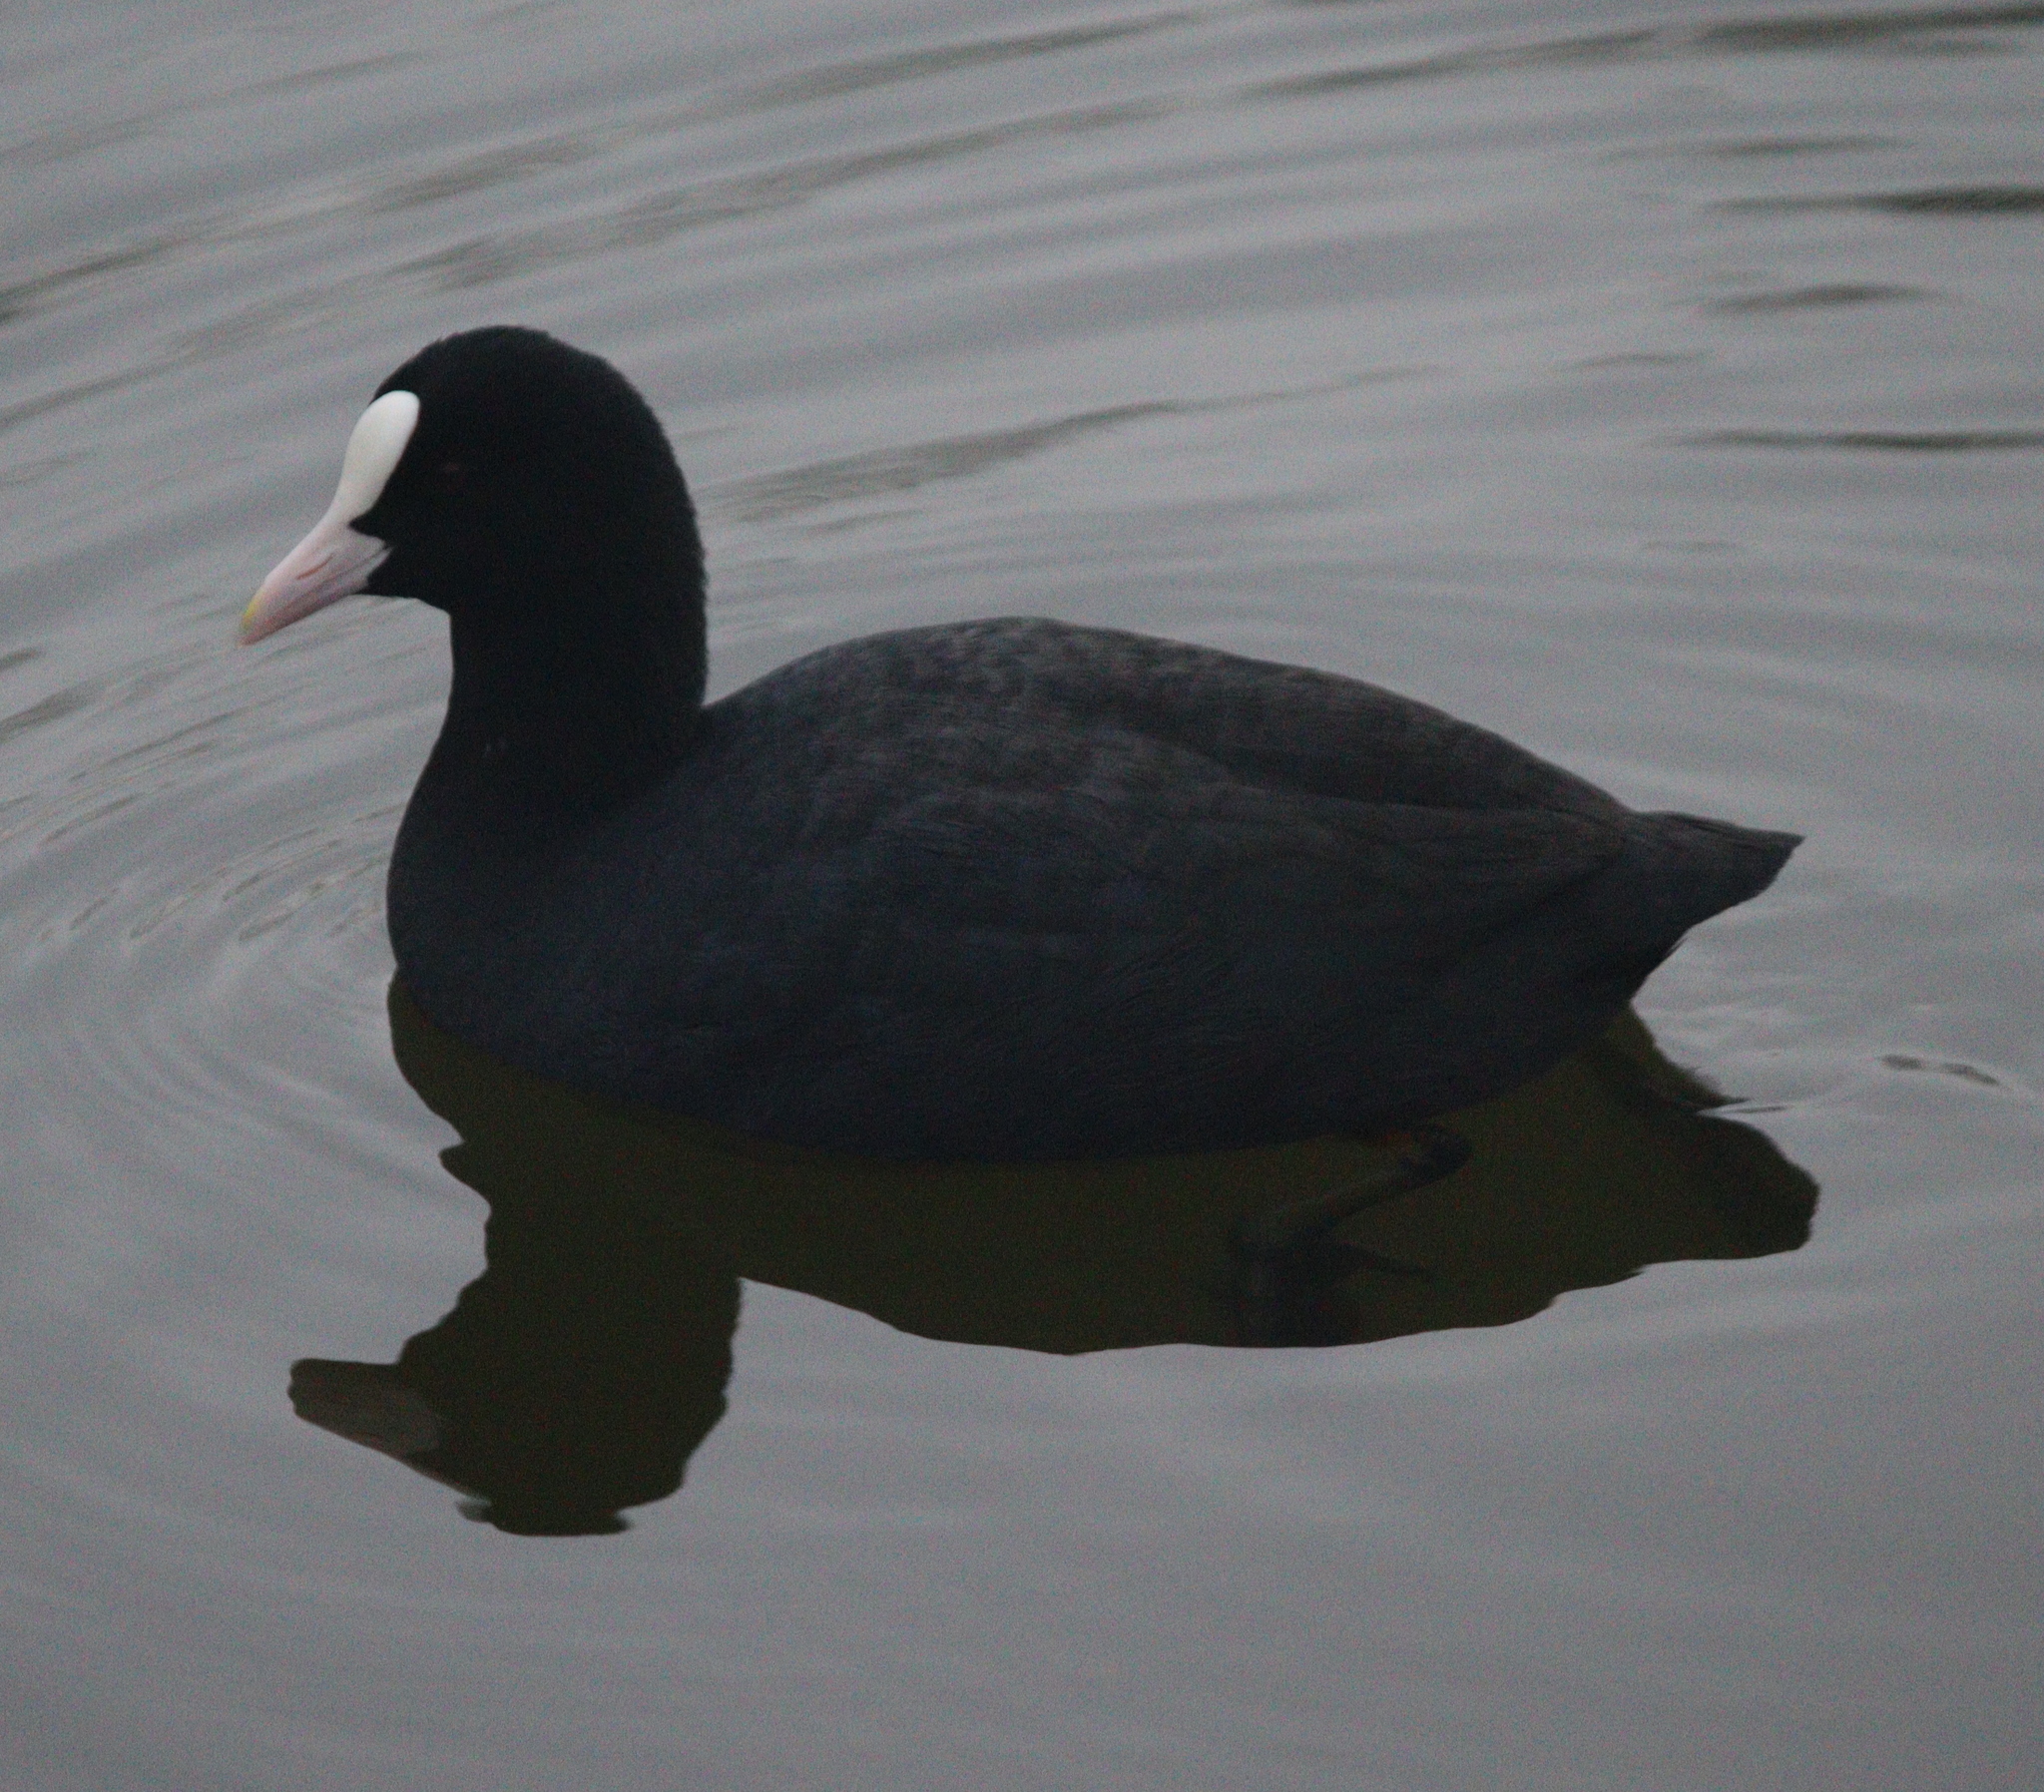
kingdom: Animalia
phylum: Chordata
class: Aves
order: Gruiformes
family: Rallidae
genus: Fulica
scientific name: Fulica atra
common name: Eurasian coot
